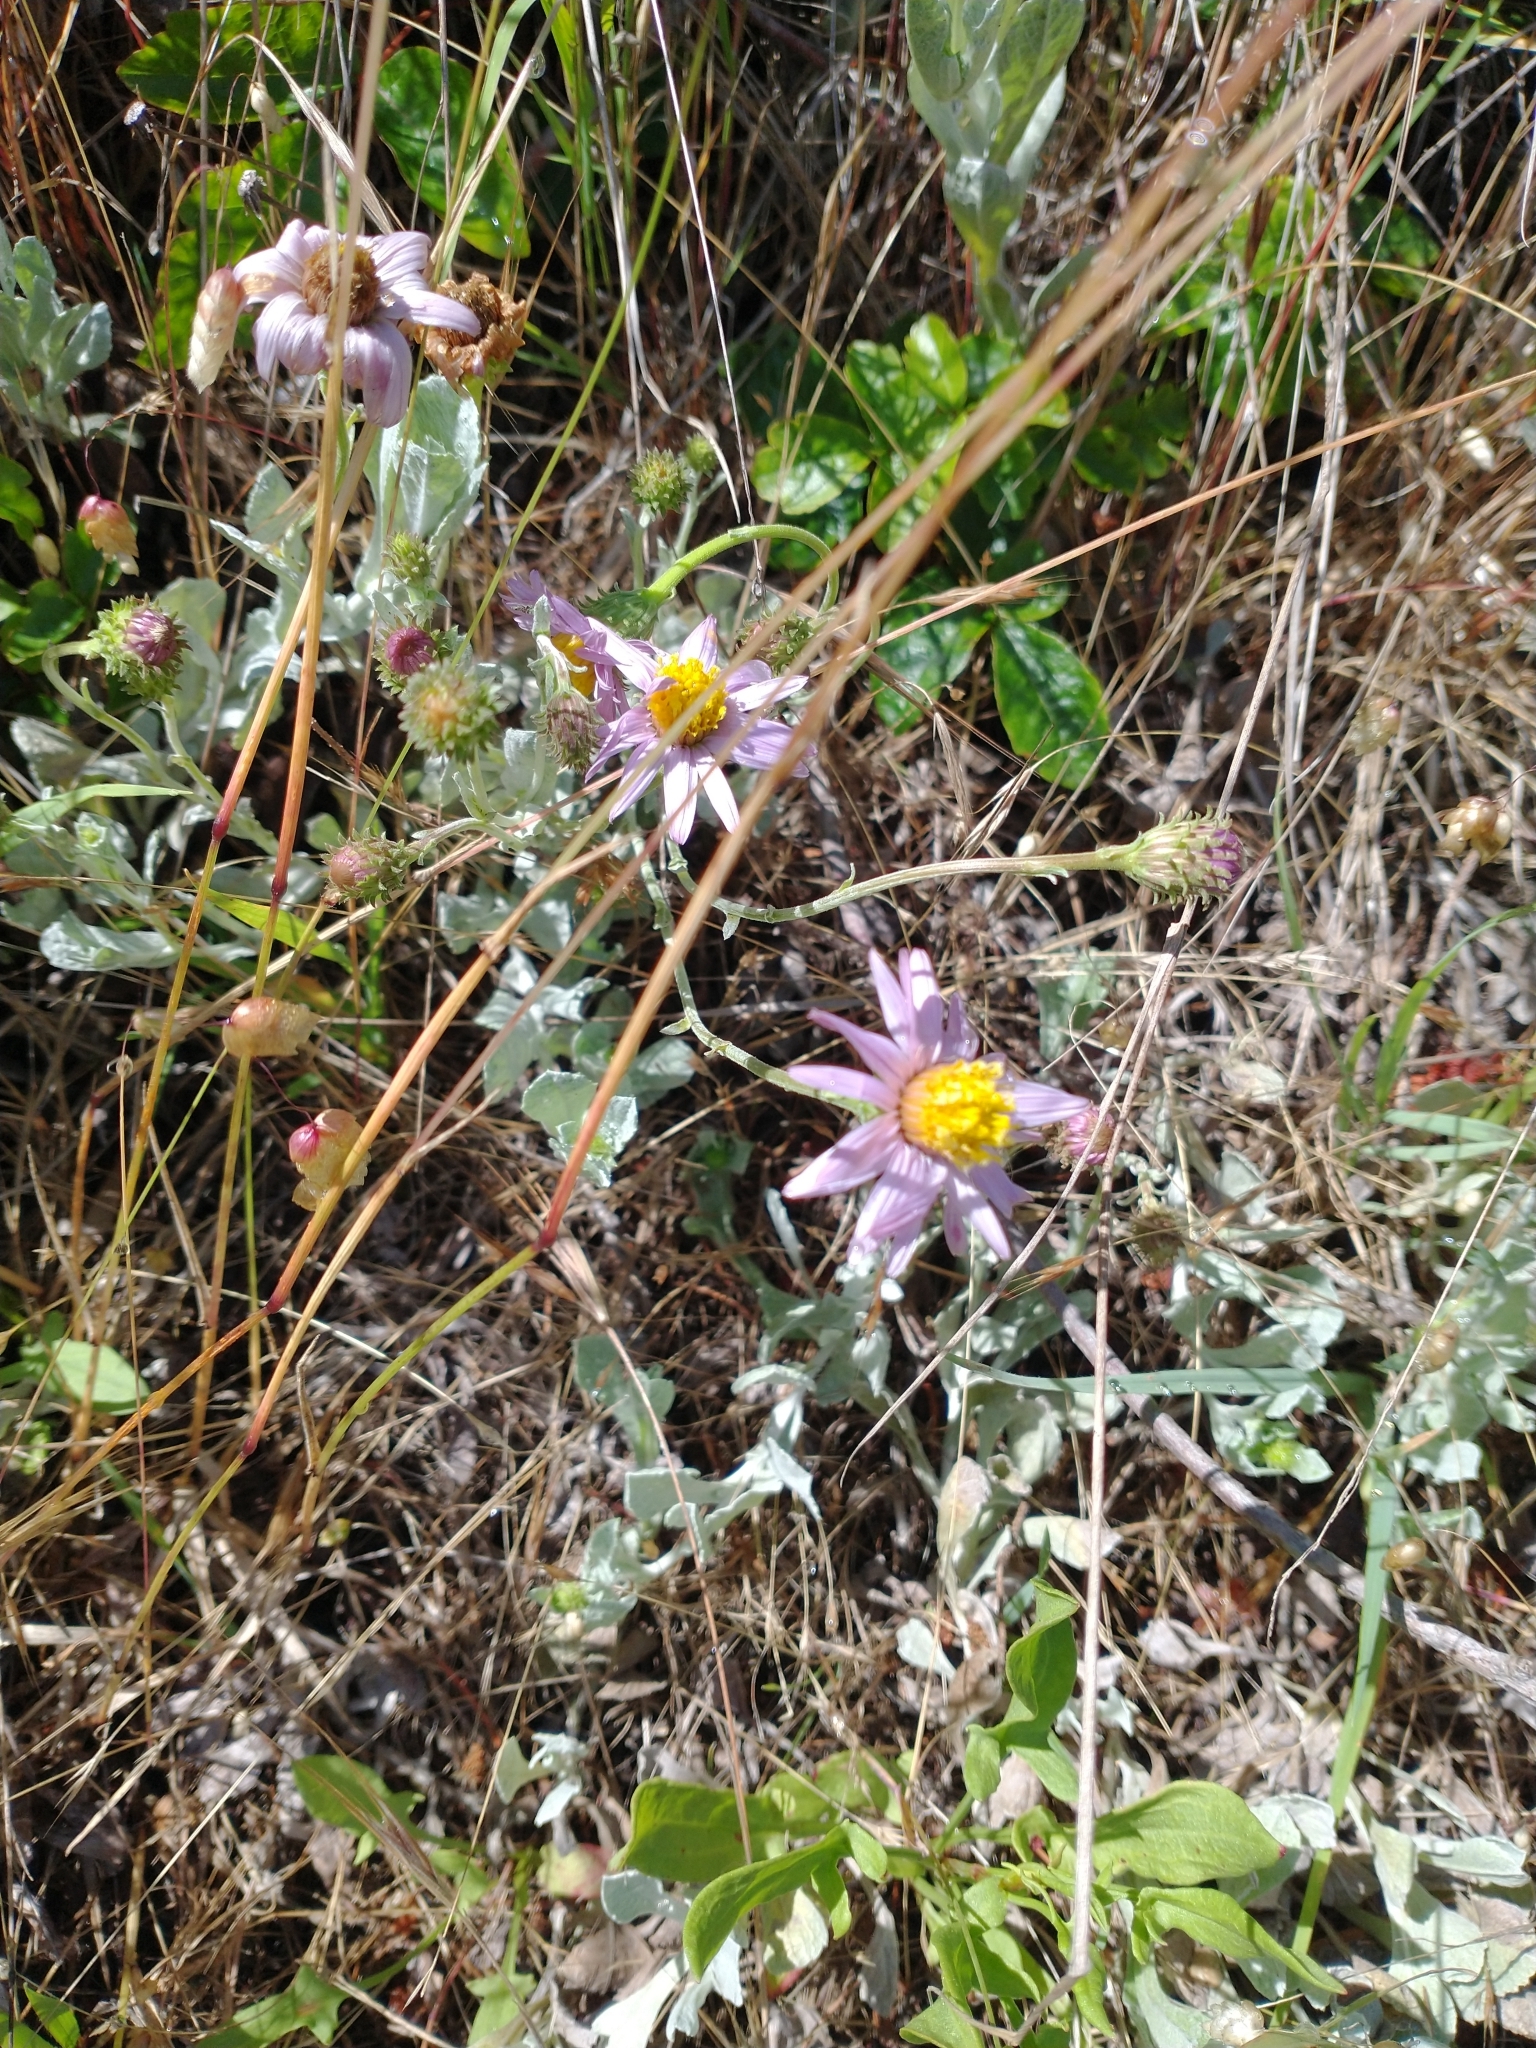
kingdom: Plantae
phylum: Tracheophyta
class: Magnoliopsida
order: Asterales
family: Asteraceae
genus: Corethrogyne
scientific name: Corethrogyne filaginifolia
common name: Sand-aster
